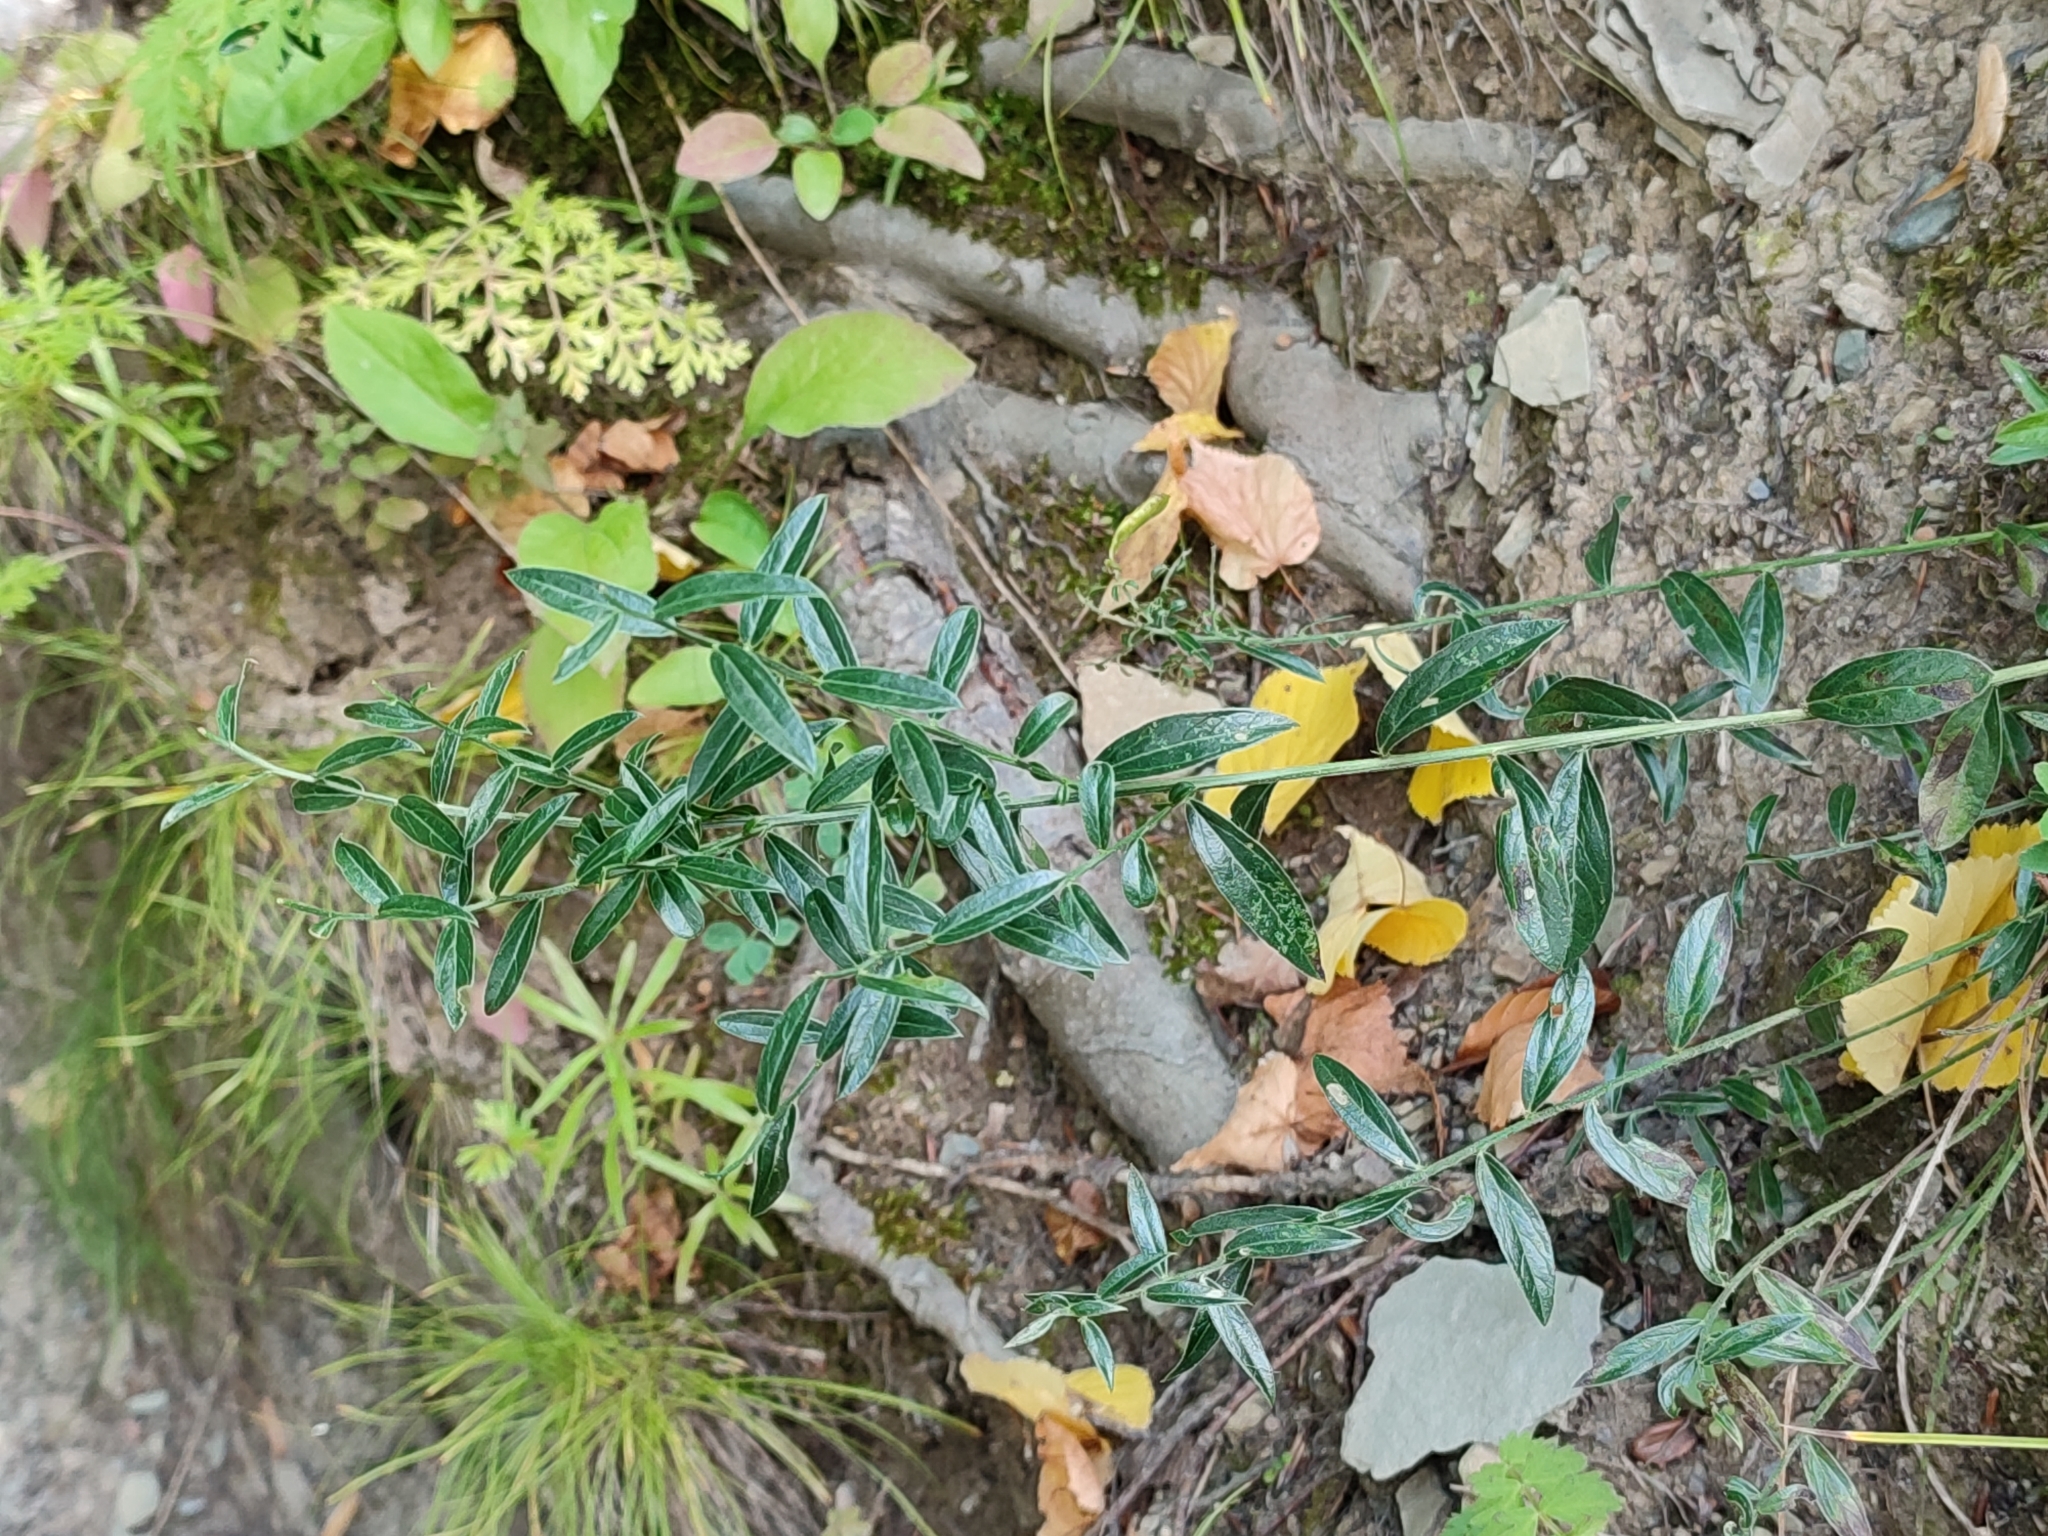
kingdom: Plantae
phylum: Tracheophyta
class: Magnoliopsida
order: Fabales
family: Fabaceae
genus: Genista
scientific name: Genista tinctoria
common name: Dyer's greenweed
